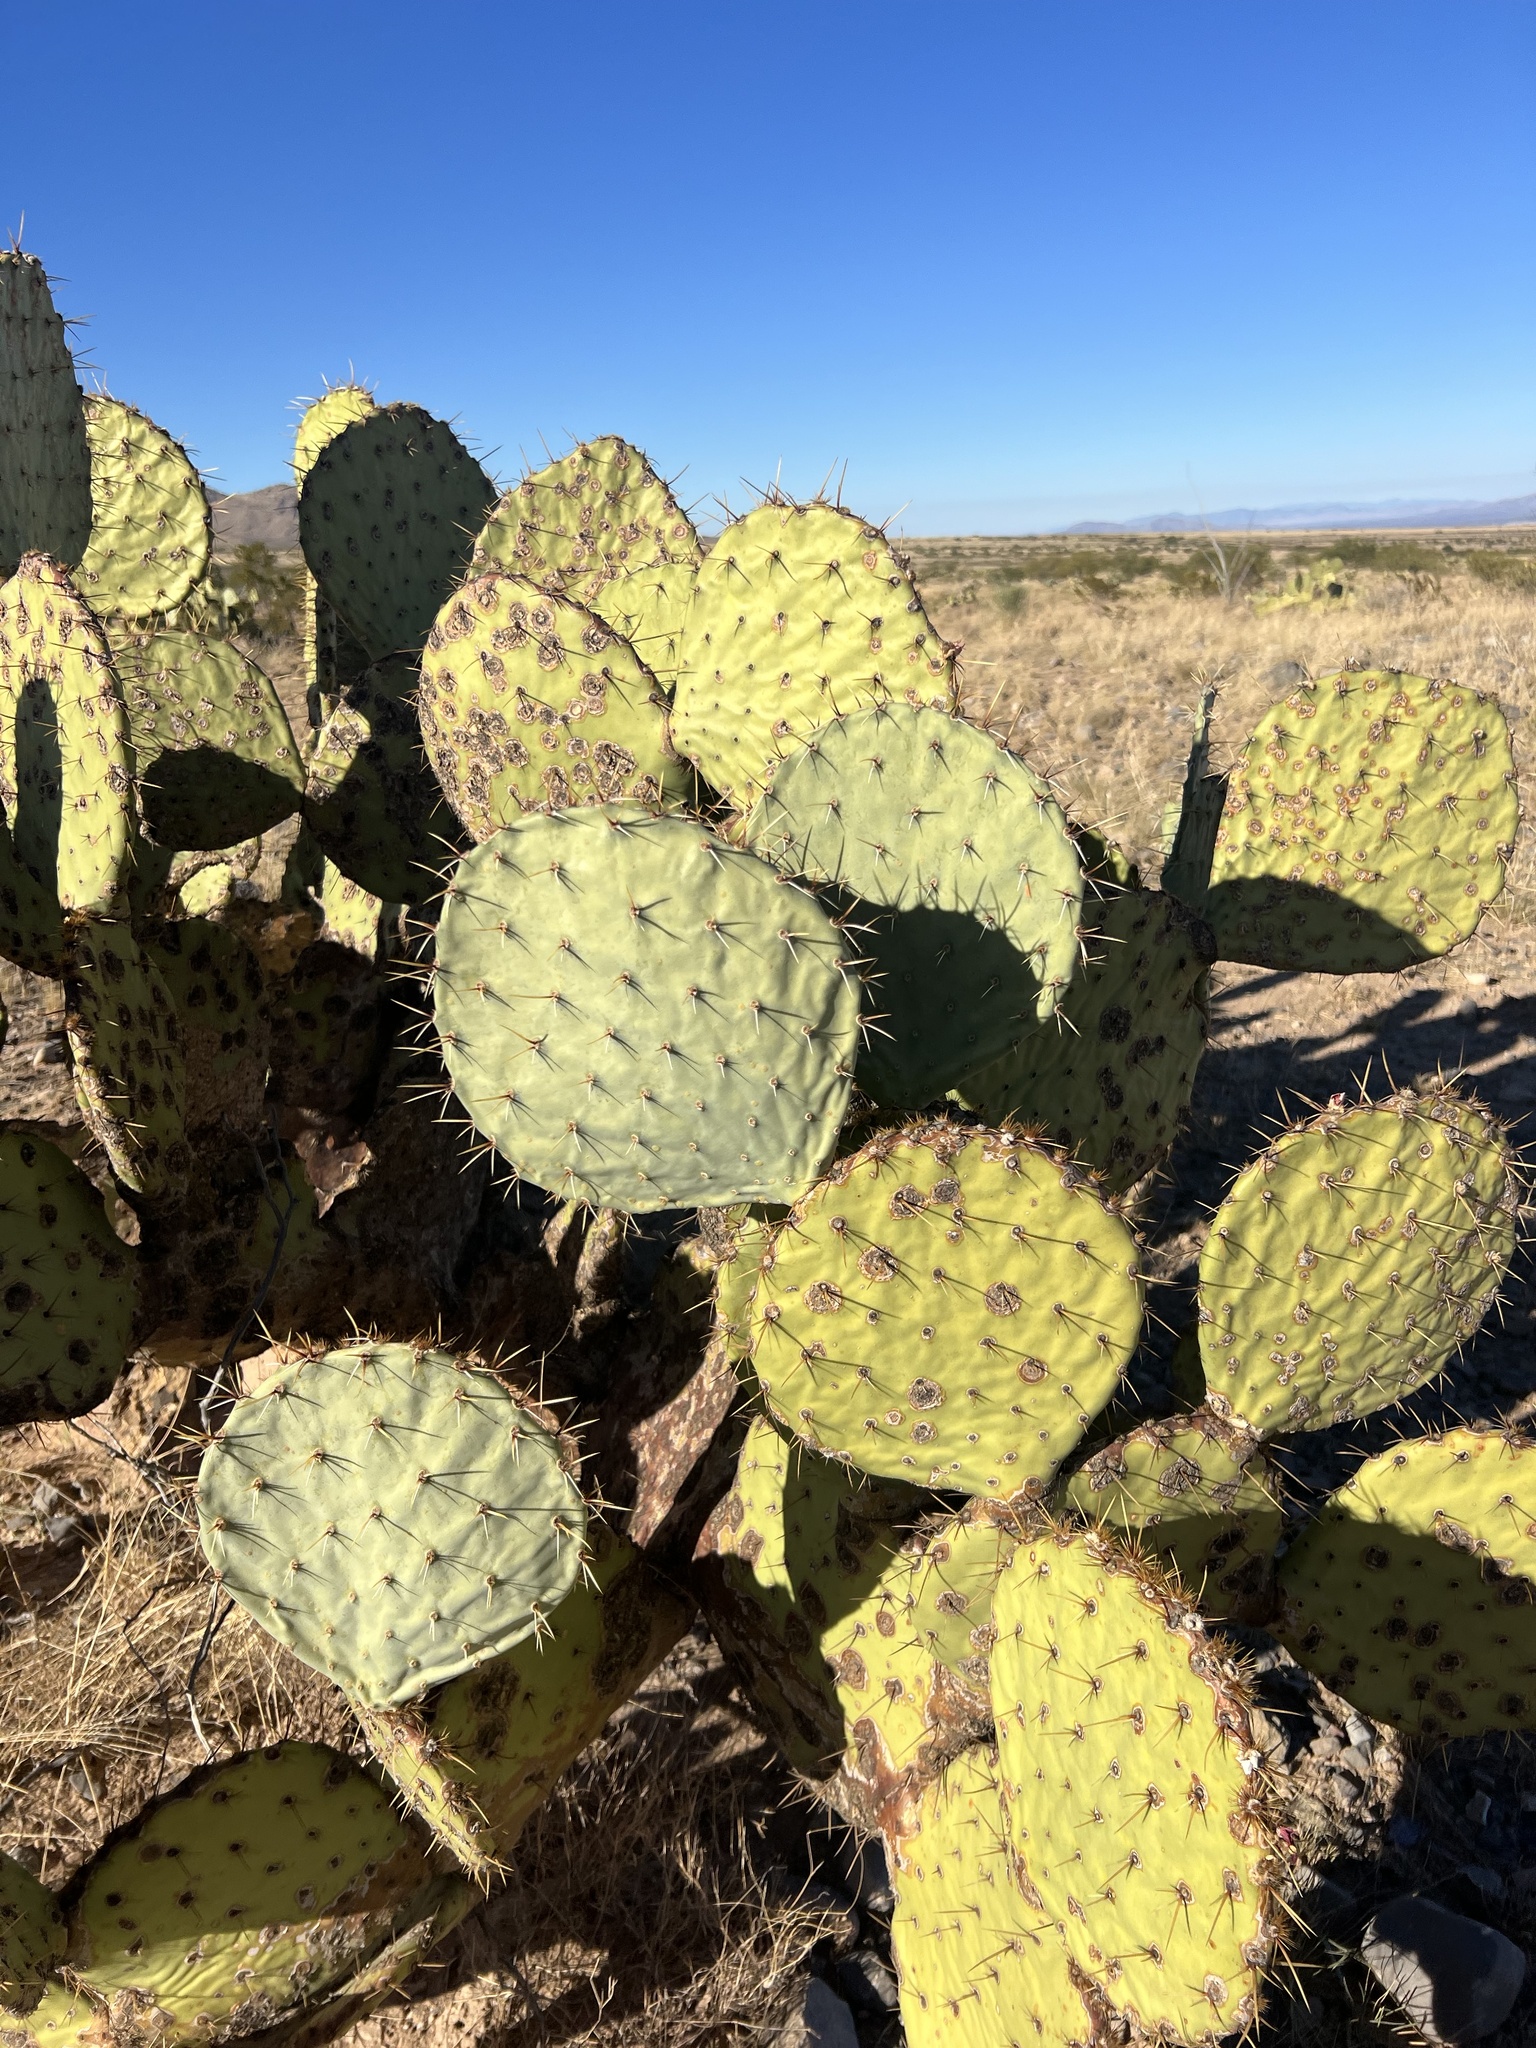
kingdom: Plantae
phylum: Tracheophyta
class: Magnoliopsida
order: Caryophyllales
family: Cactaceae
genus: Opuntia
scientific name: Opuntia engelmannii
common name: Cactus-apple
